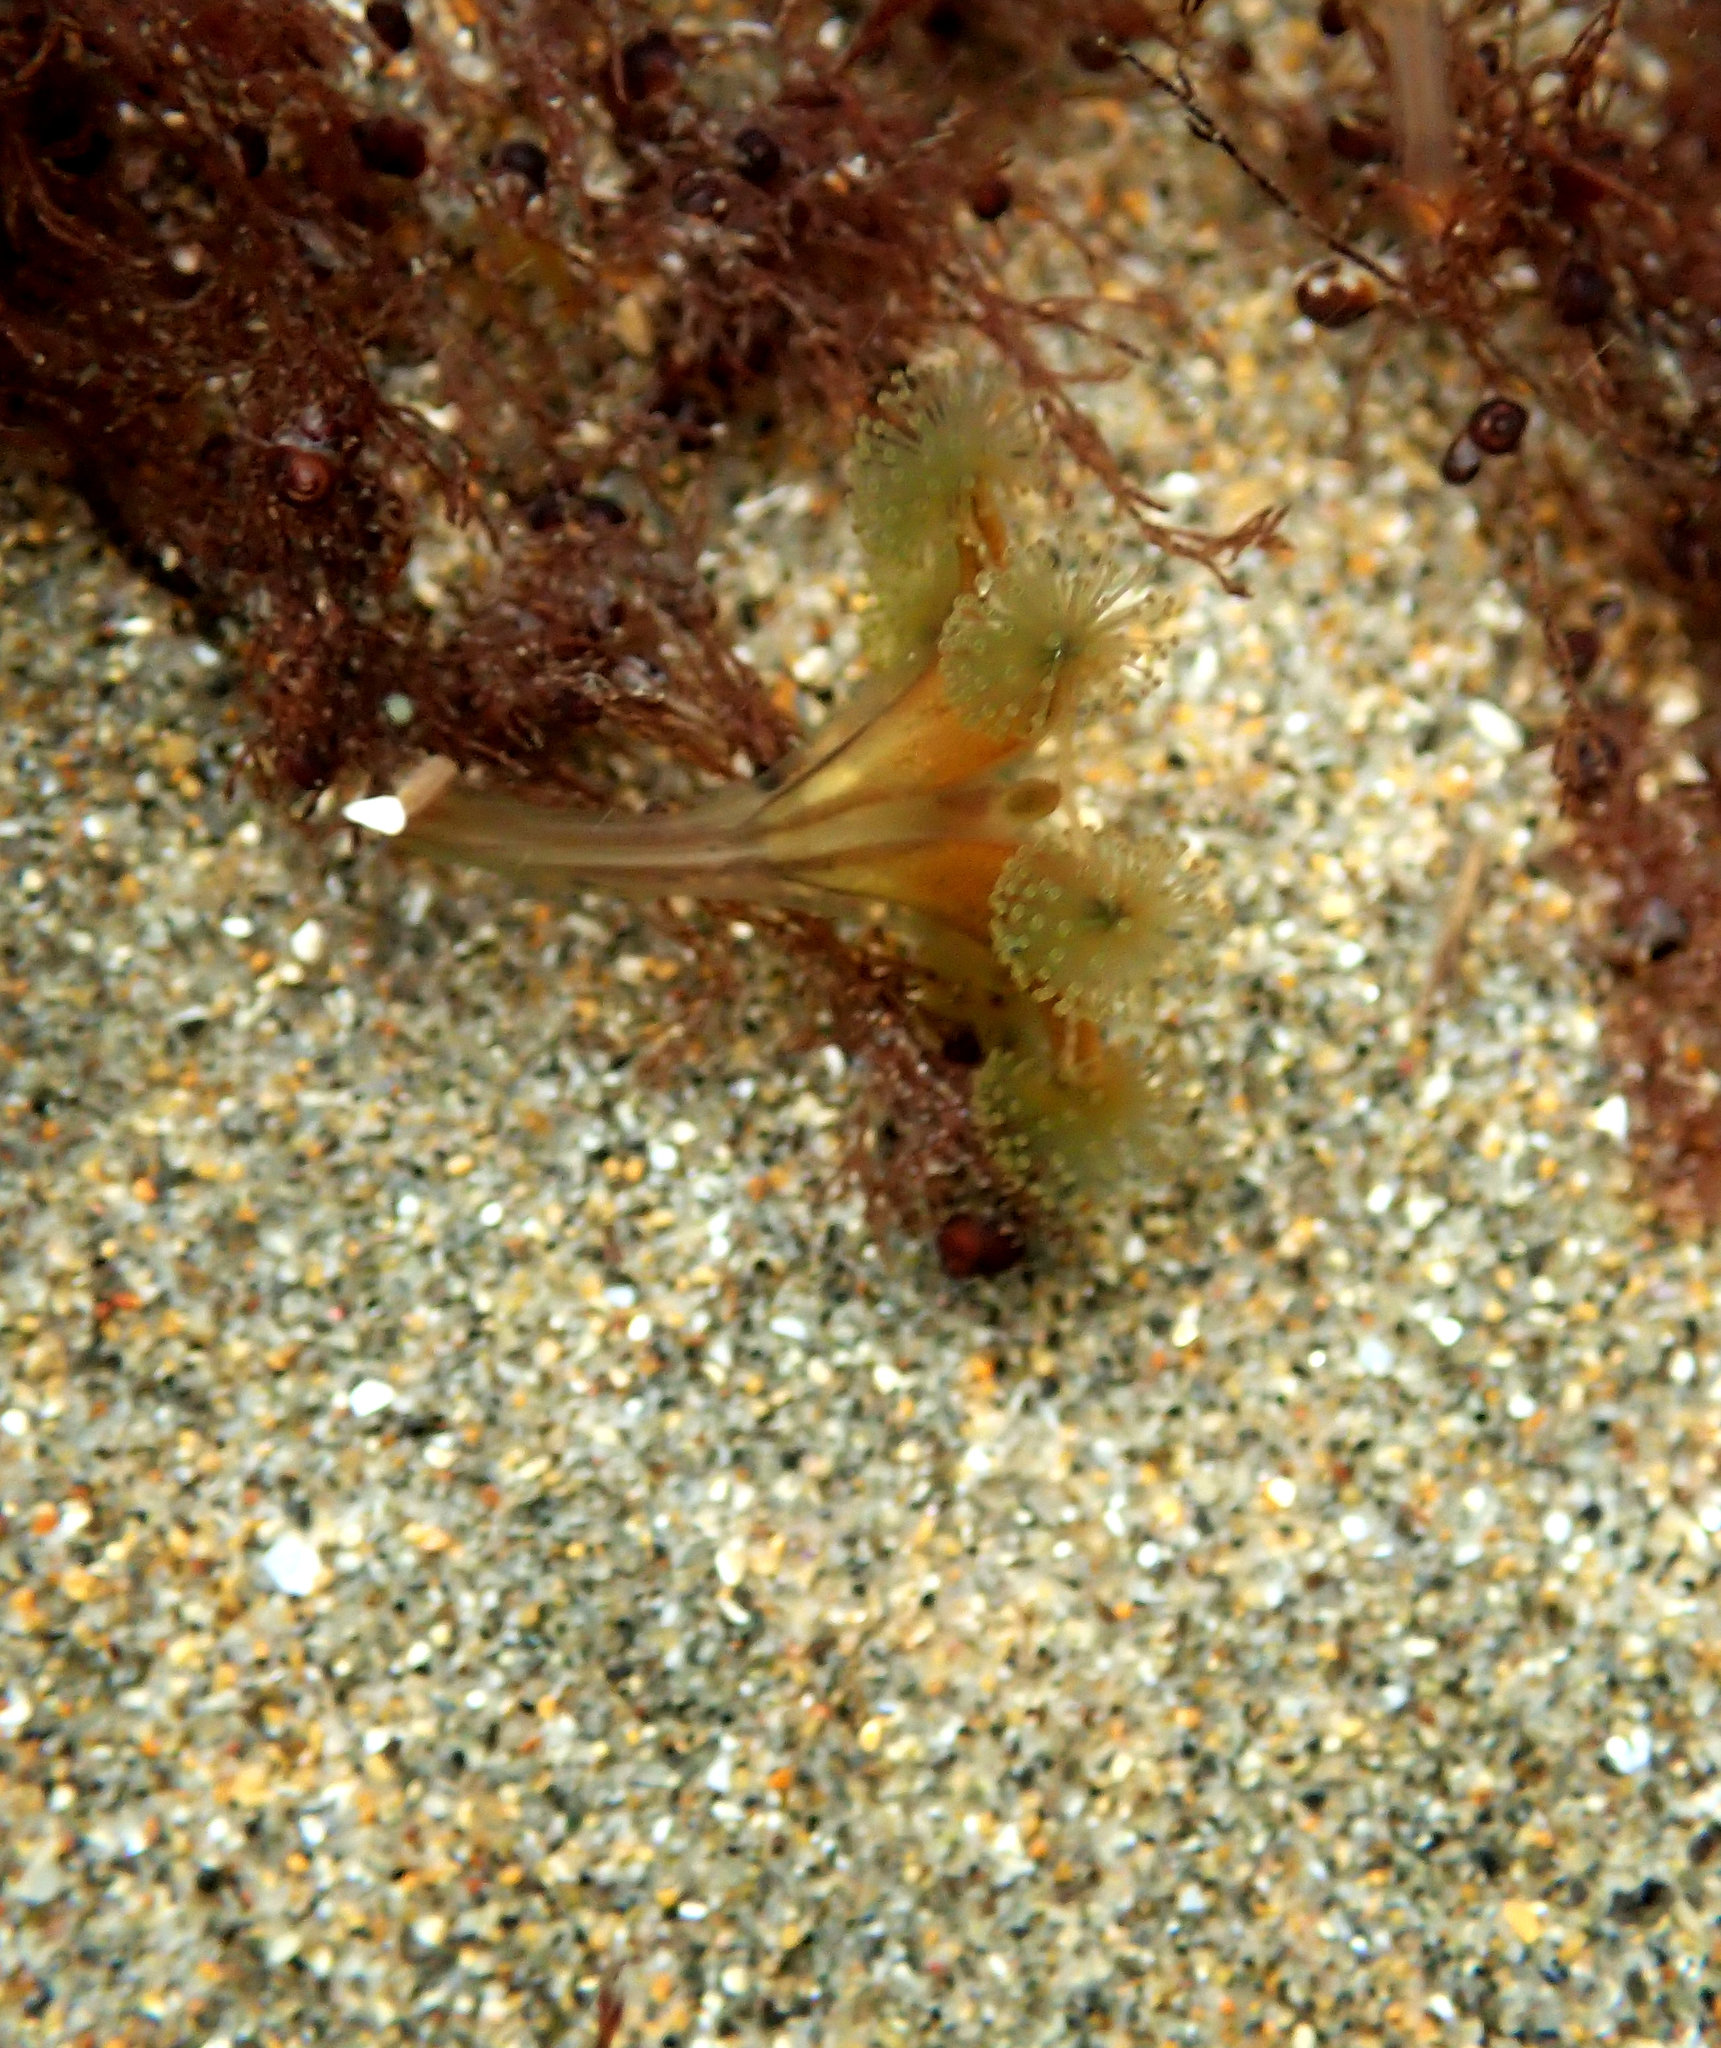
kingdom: Animalia
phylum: Cnidaria
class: Staurozoa
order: Stauromedusae
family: Haliclystidae
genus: Haliclystus
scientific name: Haliclystus sanjuanensis
